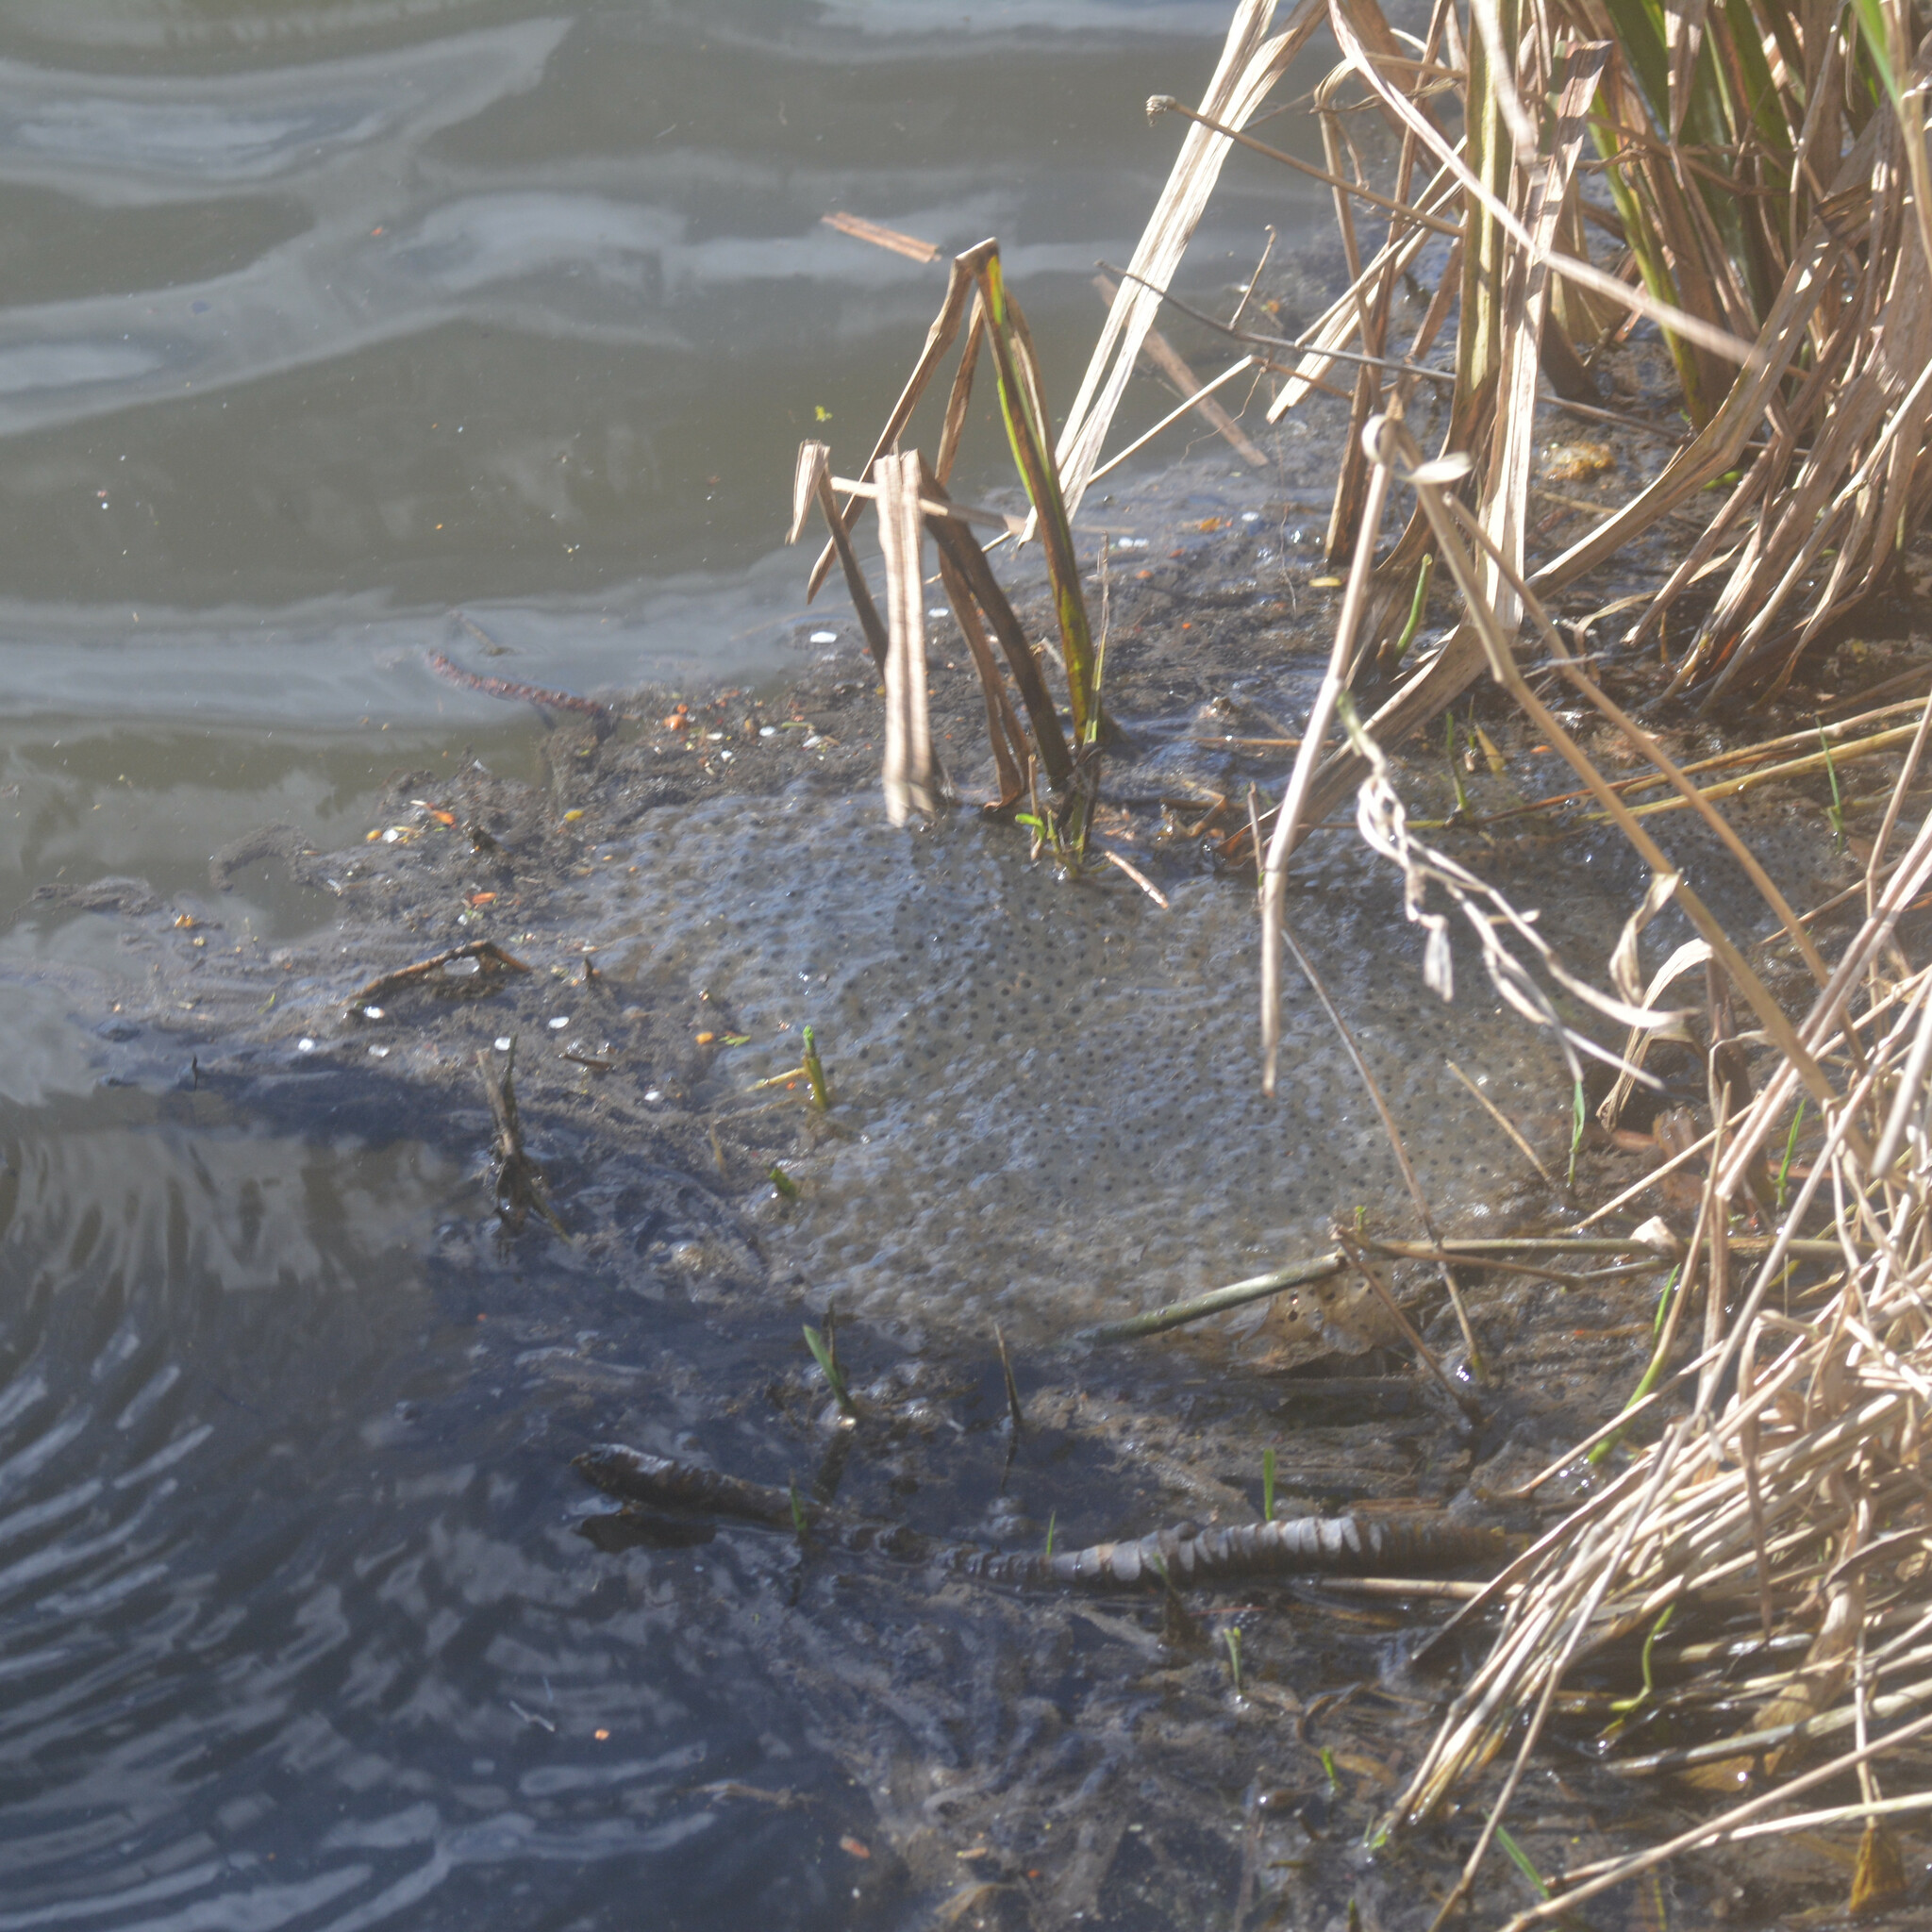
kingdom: Animalia
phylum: Chordata
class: Amphibia
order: Anura
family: Ranidae
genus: Rana
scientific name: Rana temporaria
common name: Common frog
